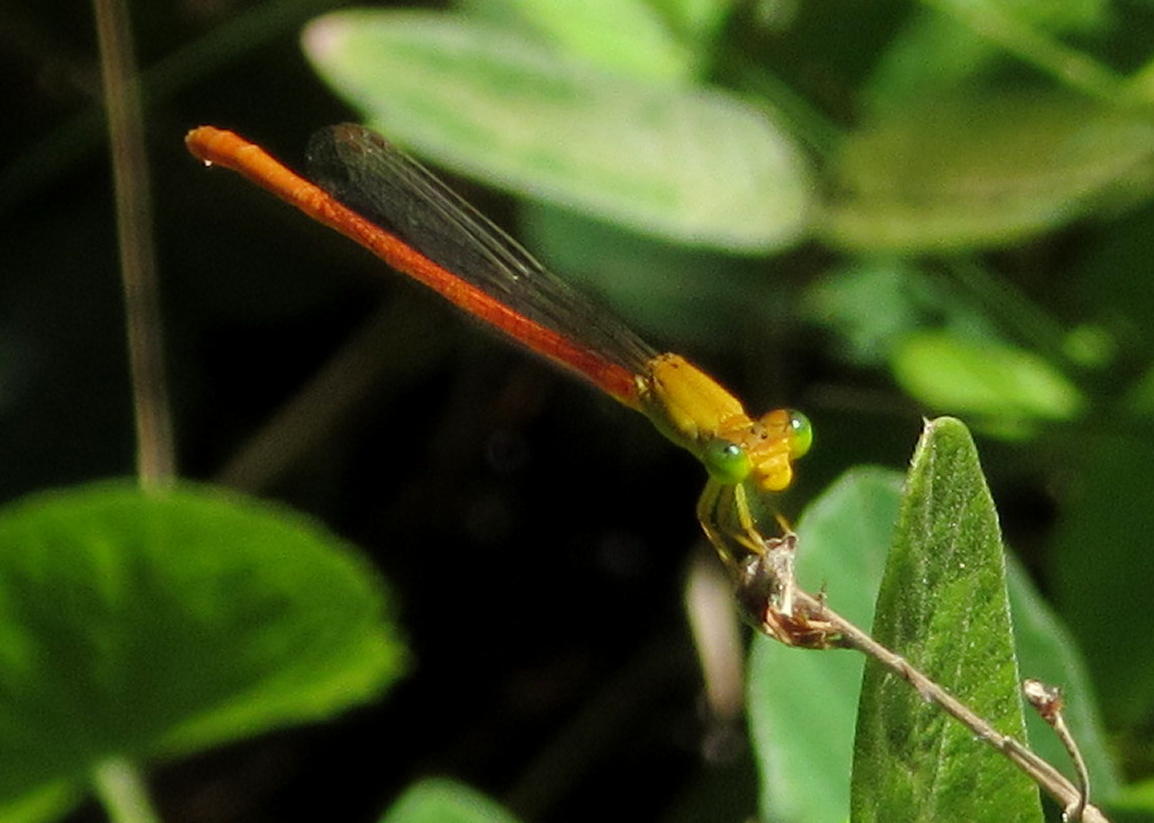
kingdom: Animalia
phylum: Arthropoda
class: Insecta
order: Odonata
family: Coenagrionidae
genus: Ceriagrion
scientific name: Ceriagrion glabrum
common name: Common pond damsel
